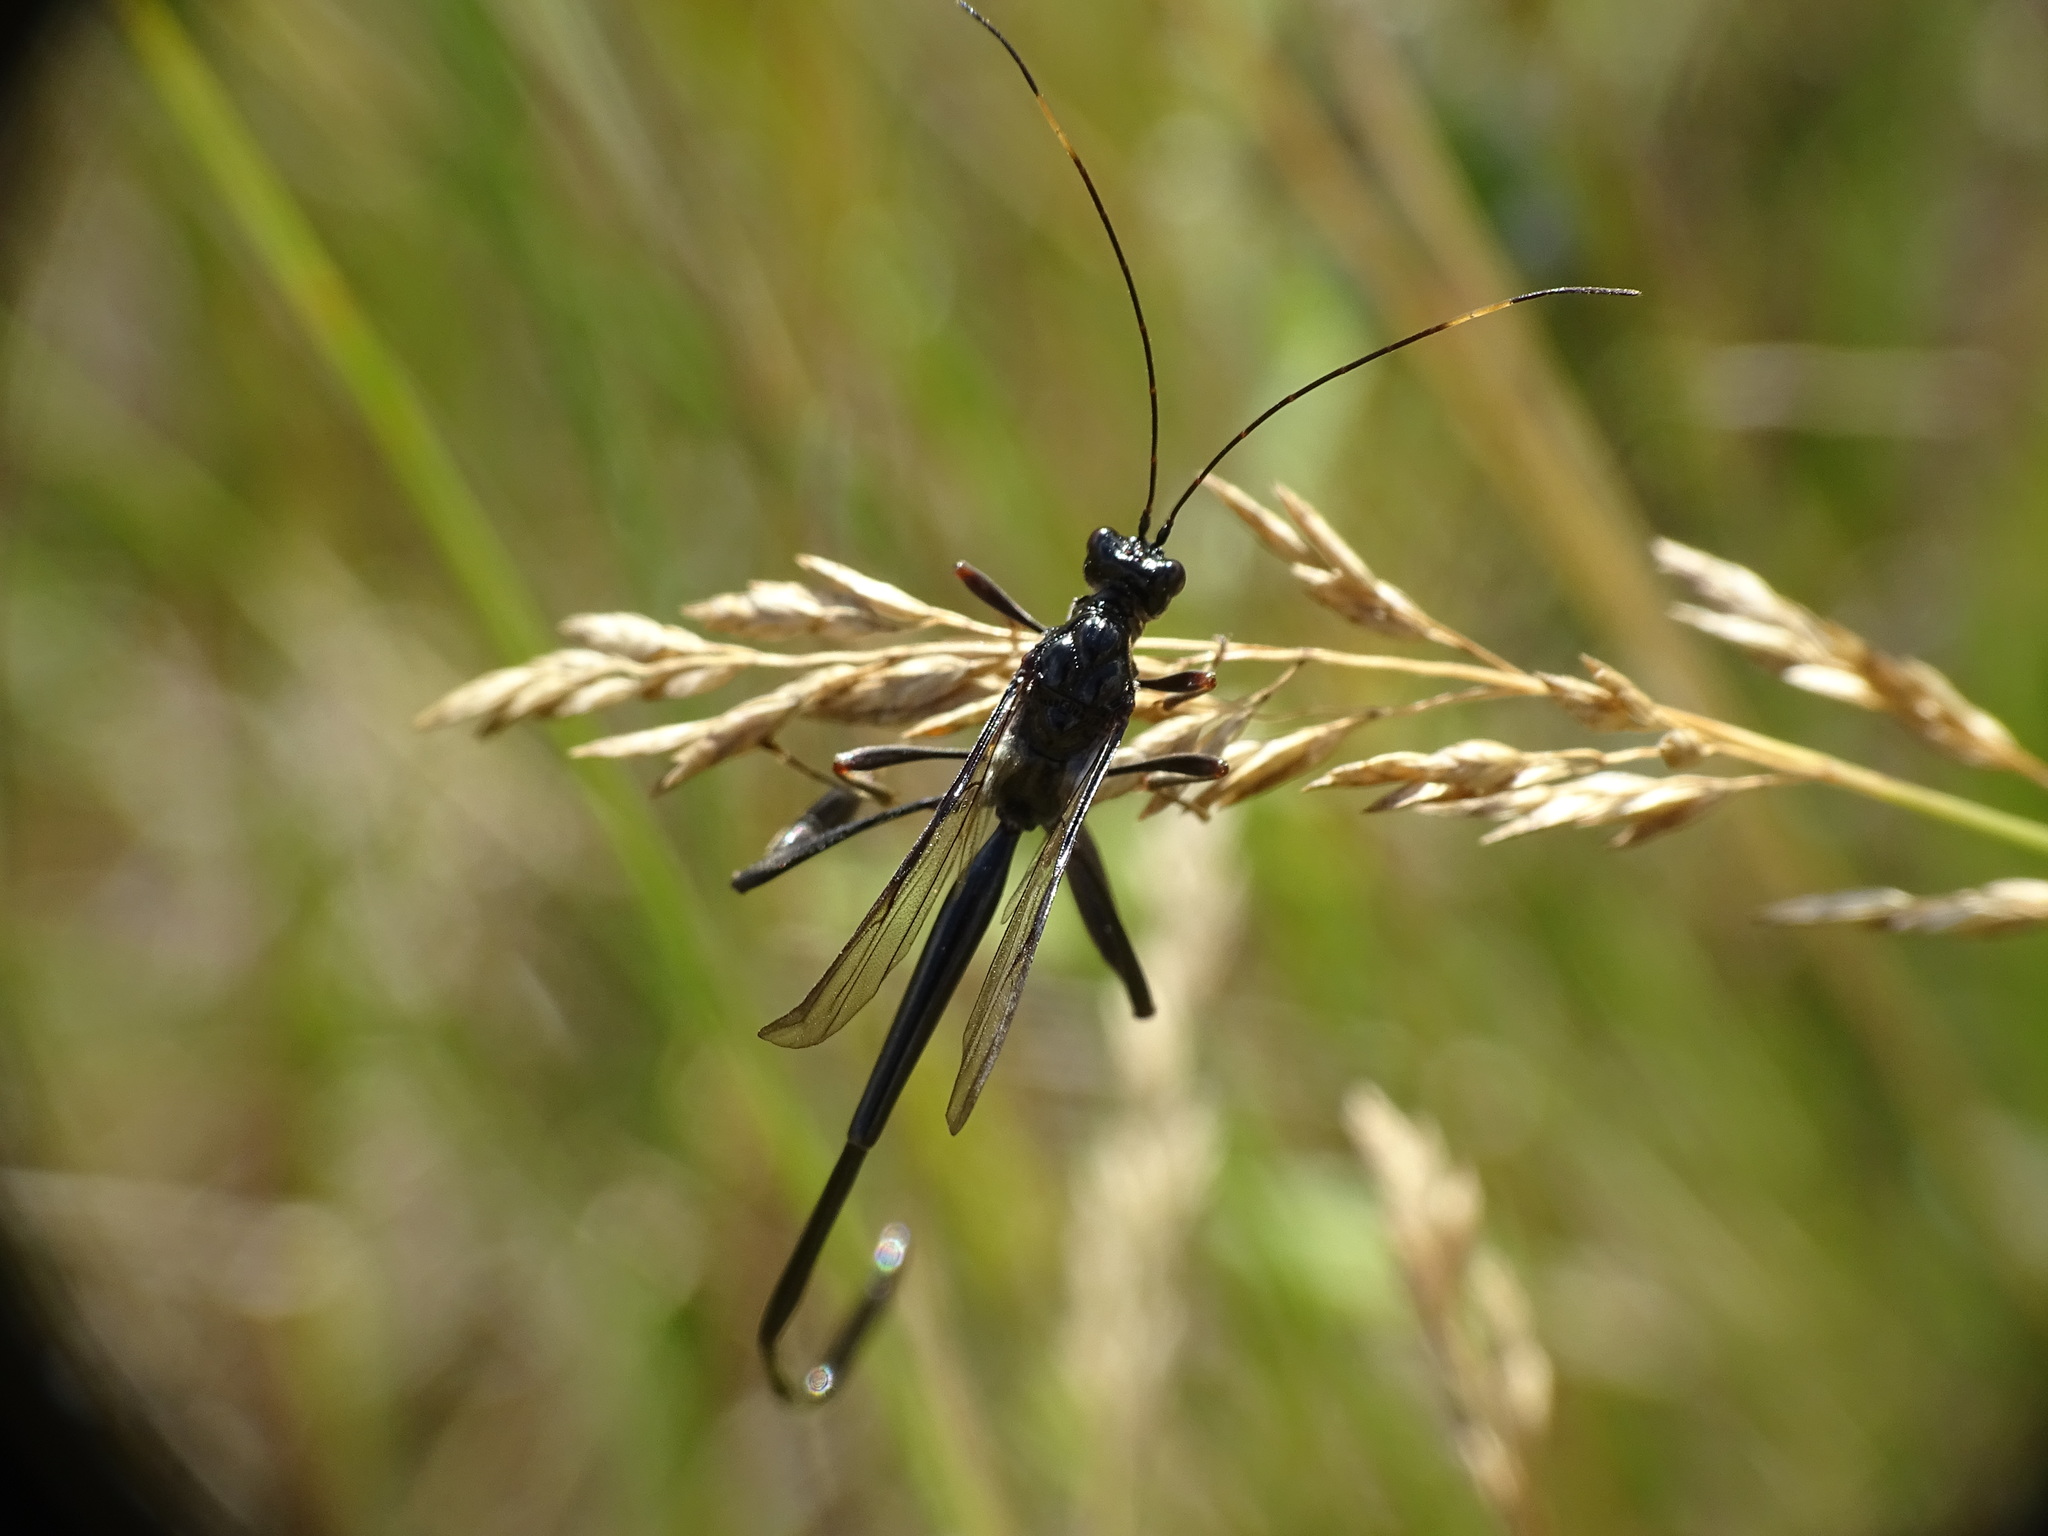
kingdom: Animalia
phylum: Arthropoda
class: Insecta
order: Hymenoptera
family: Pelecinidae
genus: Pelecinus
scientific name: Pelecinus polyturator
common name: American pelecinid wasp
